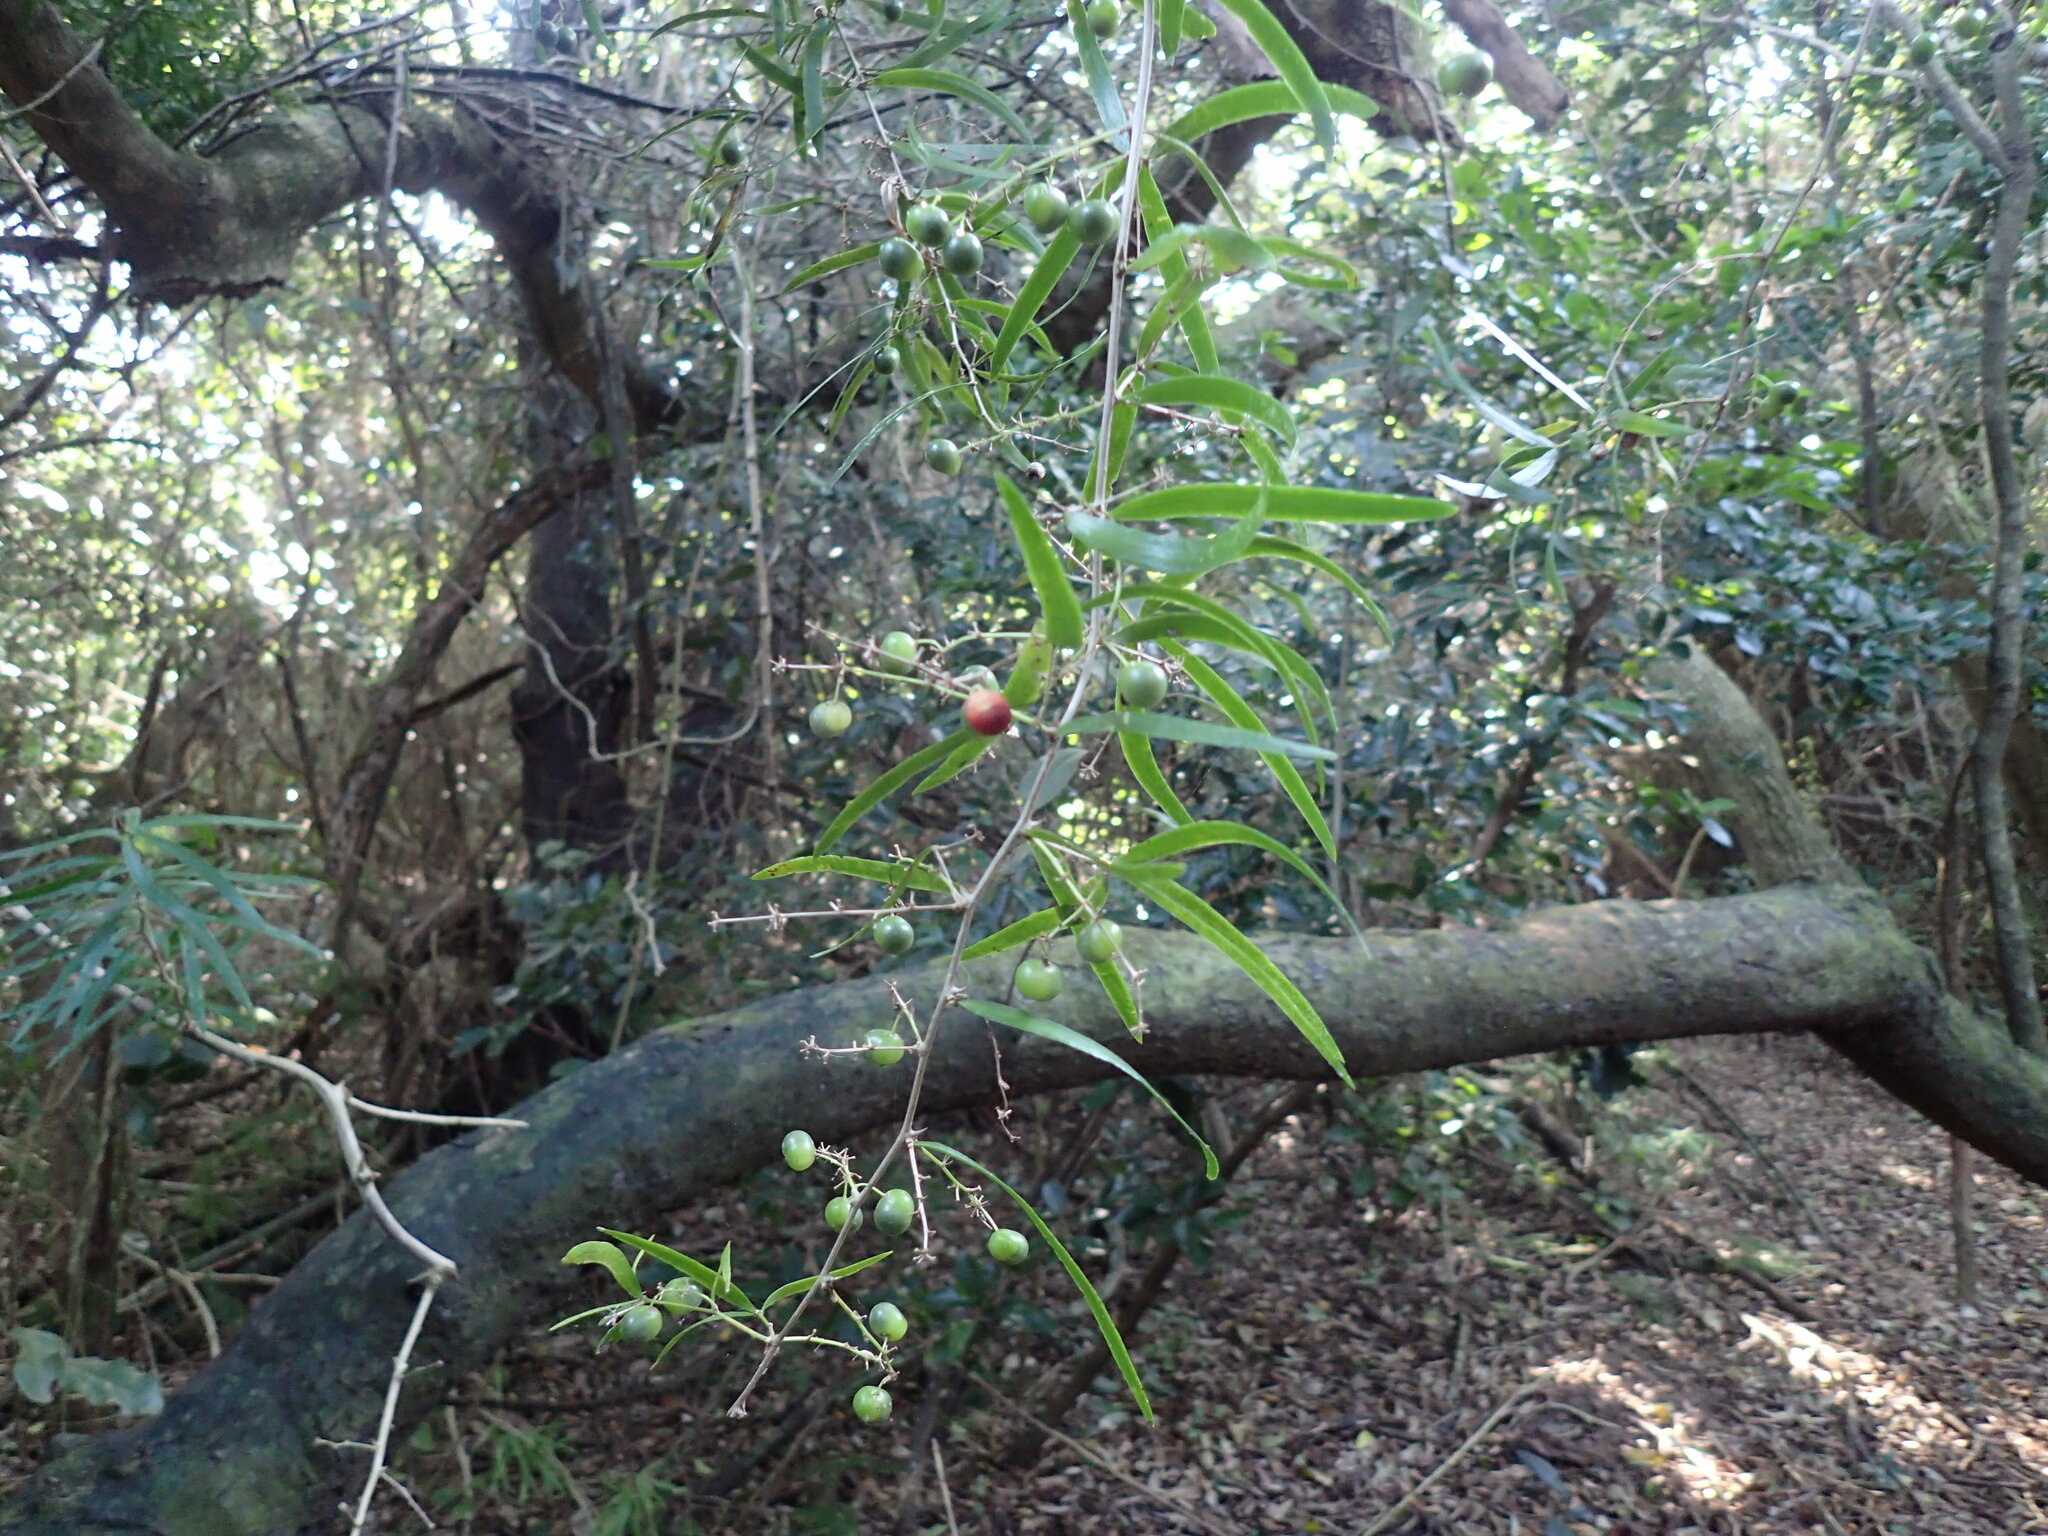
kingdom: Plantae
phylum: Tracheophyta
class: Liliopsida
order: Asparagales
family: Asparagaceae
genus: Asparagus
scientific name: Asparagus falcatus
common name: Asparagus
